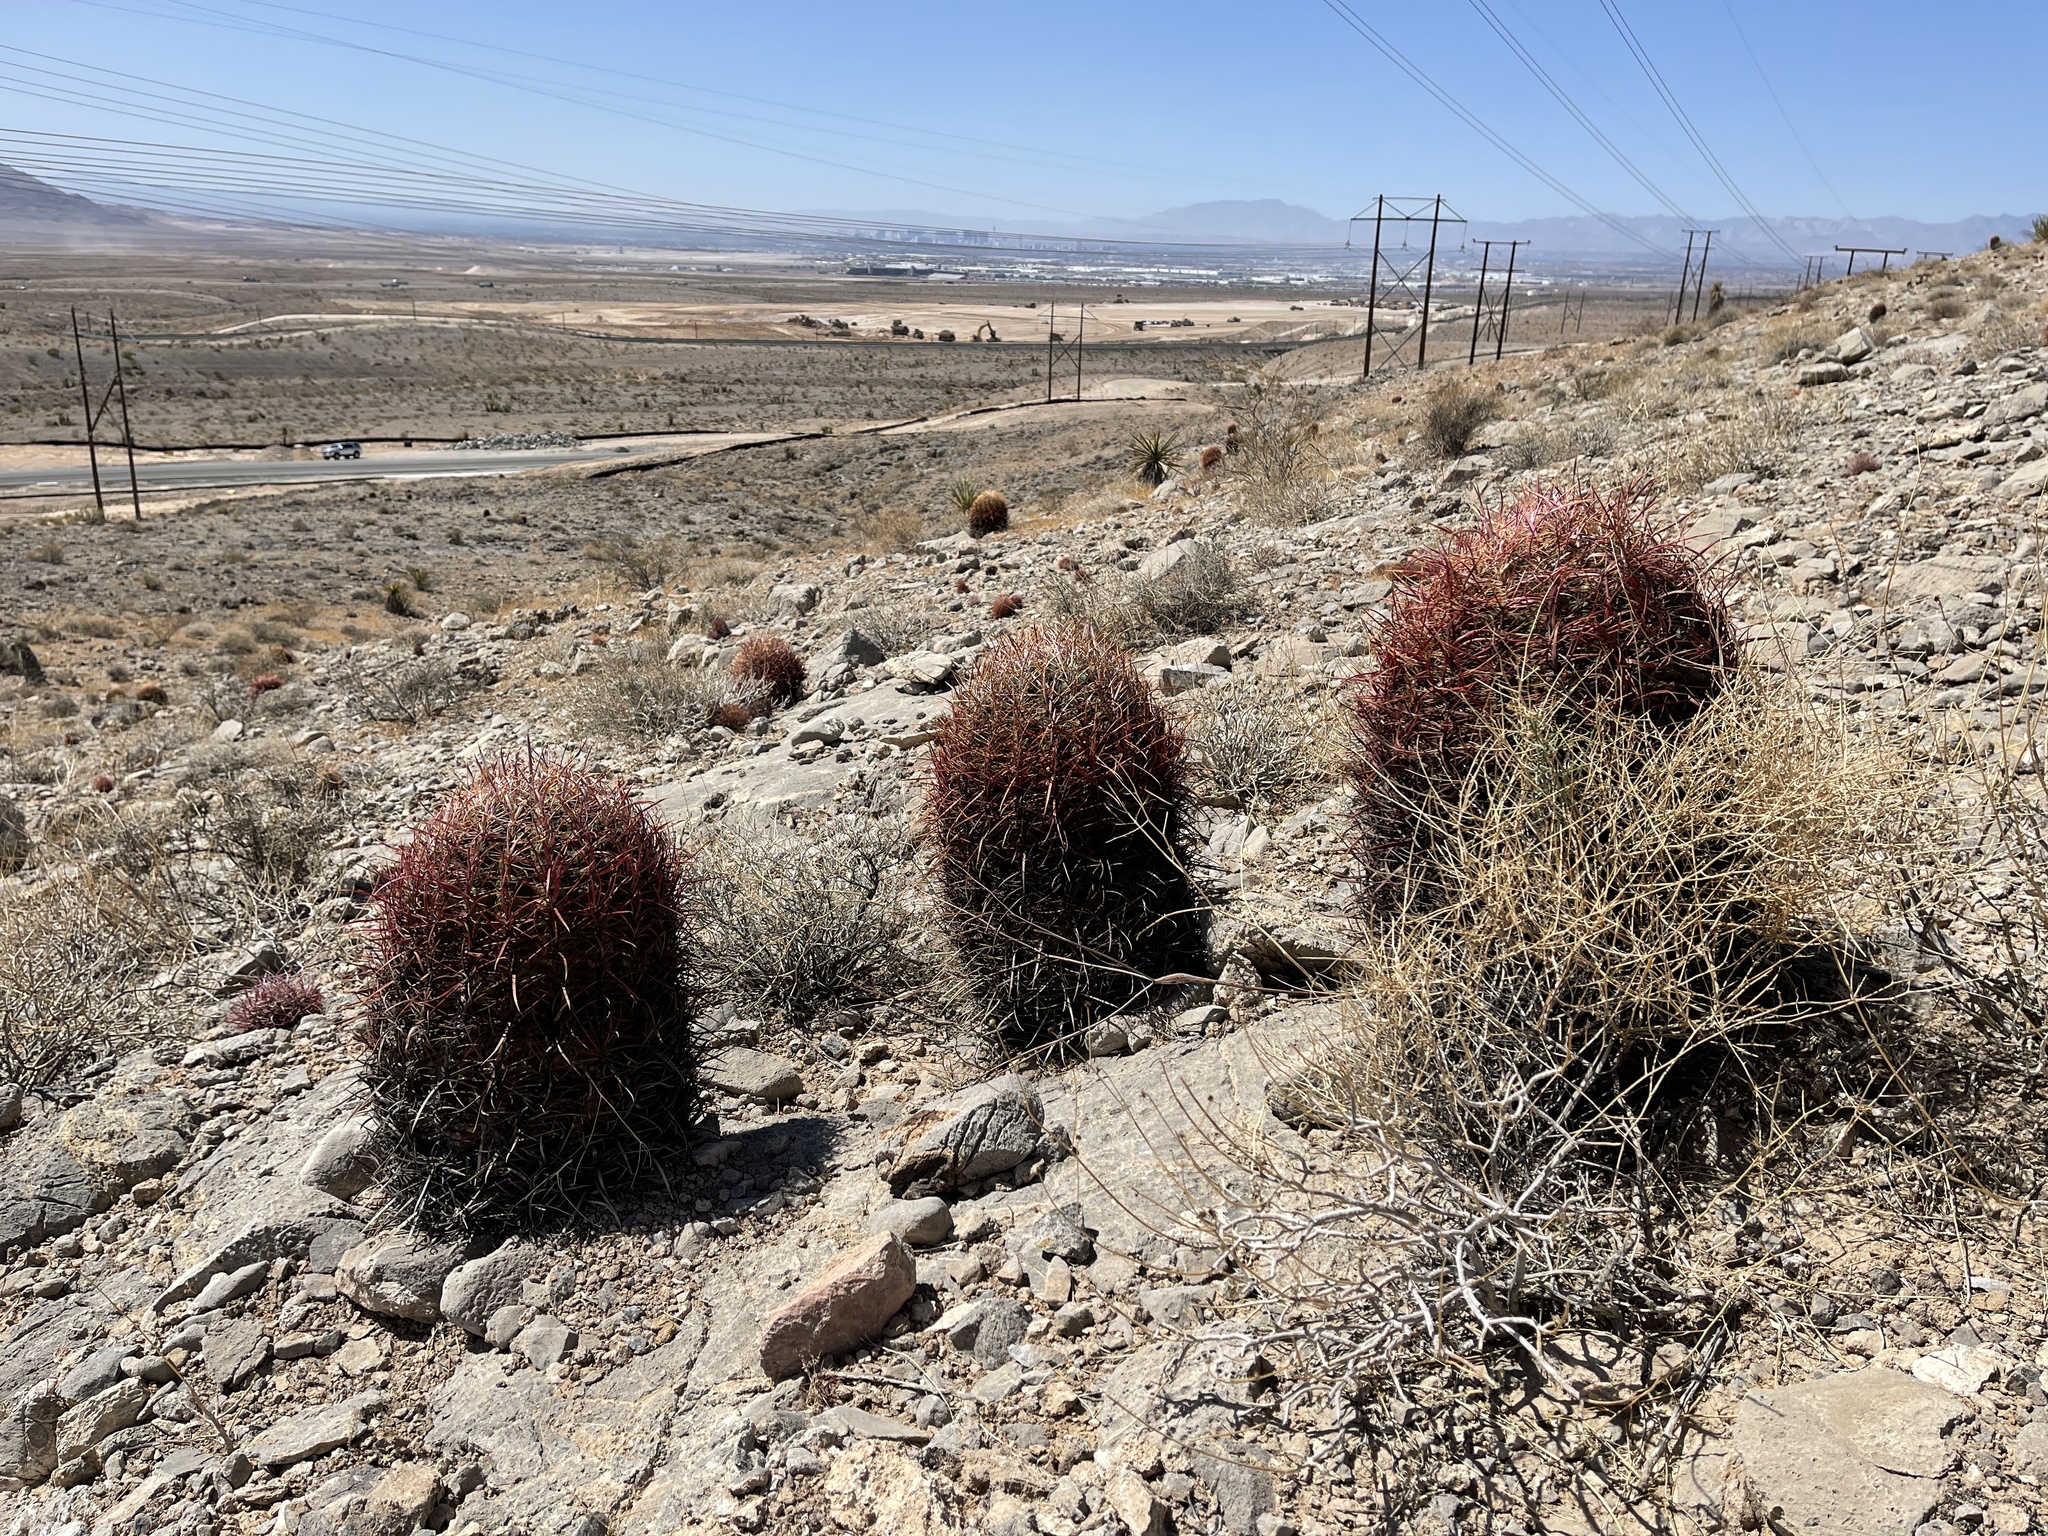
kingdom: Plantae
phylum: Tracheophyta
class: Magnoliopsida
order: Caryophyllales
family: Cactaceae
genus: Ferocactus
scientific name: Ferocactus cylindraceus
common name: California barrel cactus
